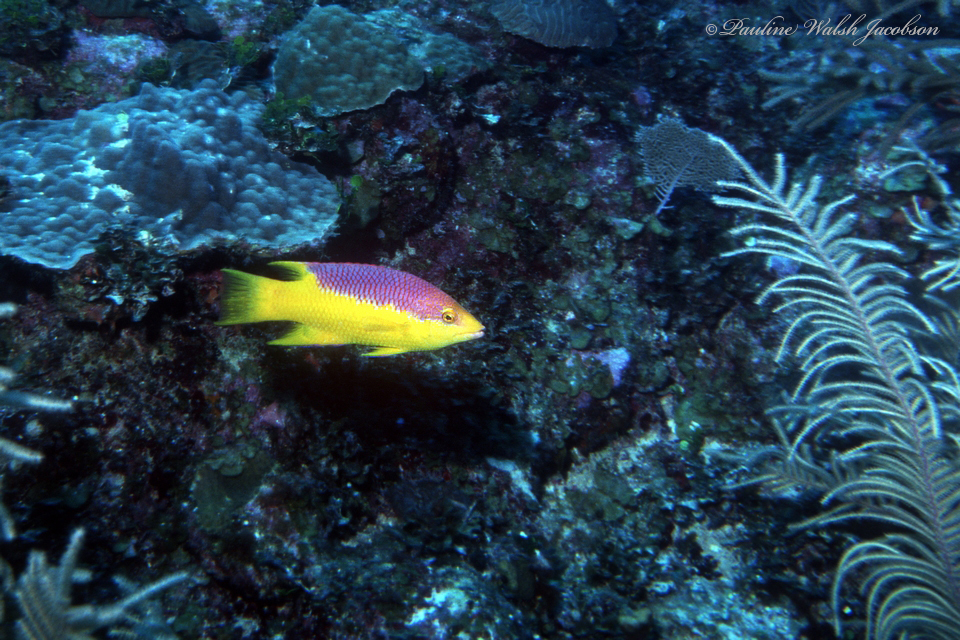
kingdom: Animalia
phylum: Chordata
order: Perciformes
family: Labridae
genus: Bodianus
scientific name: Bodianus rufus
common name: Spanish hogfish
